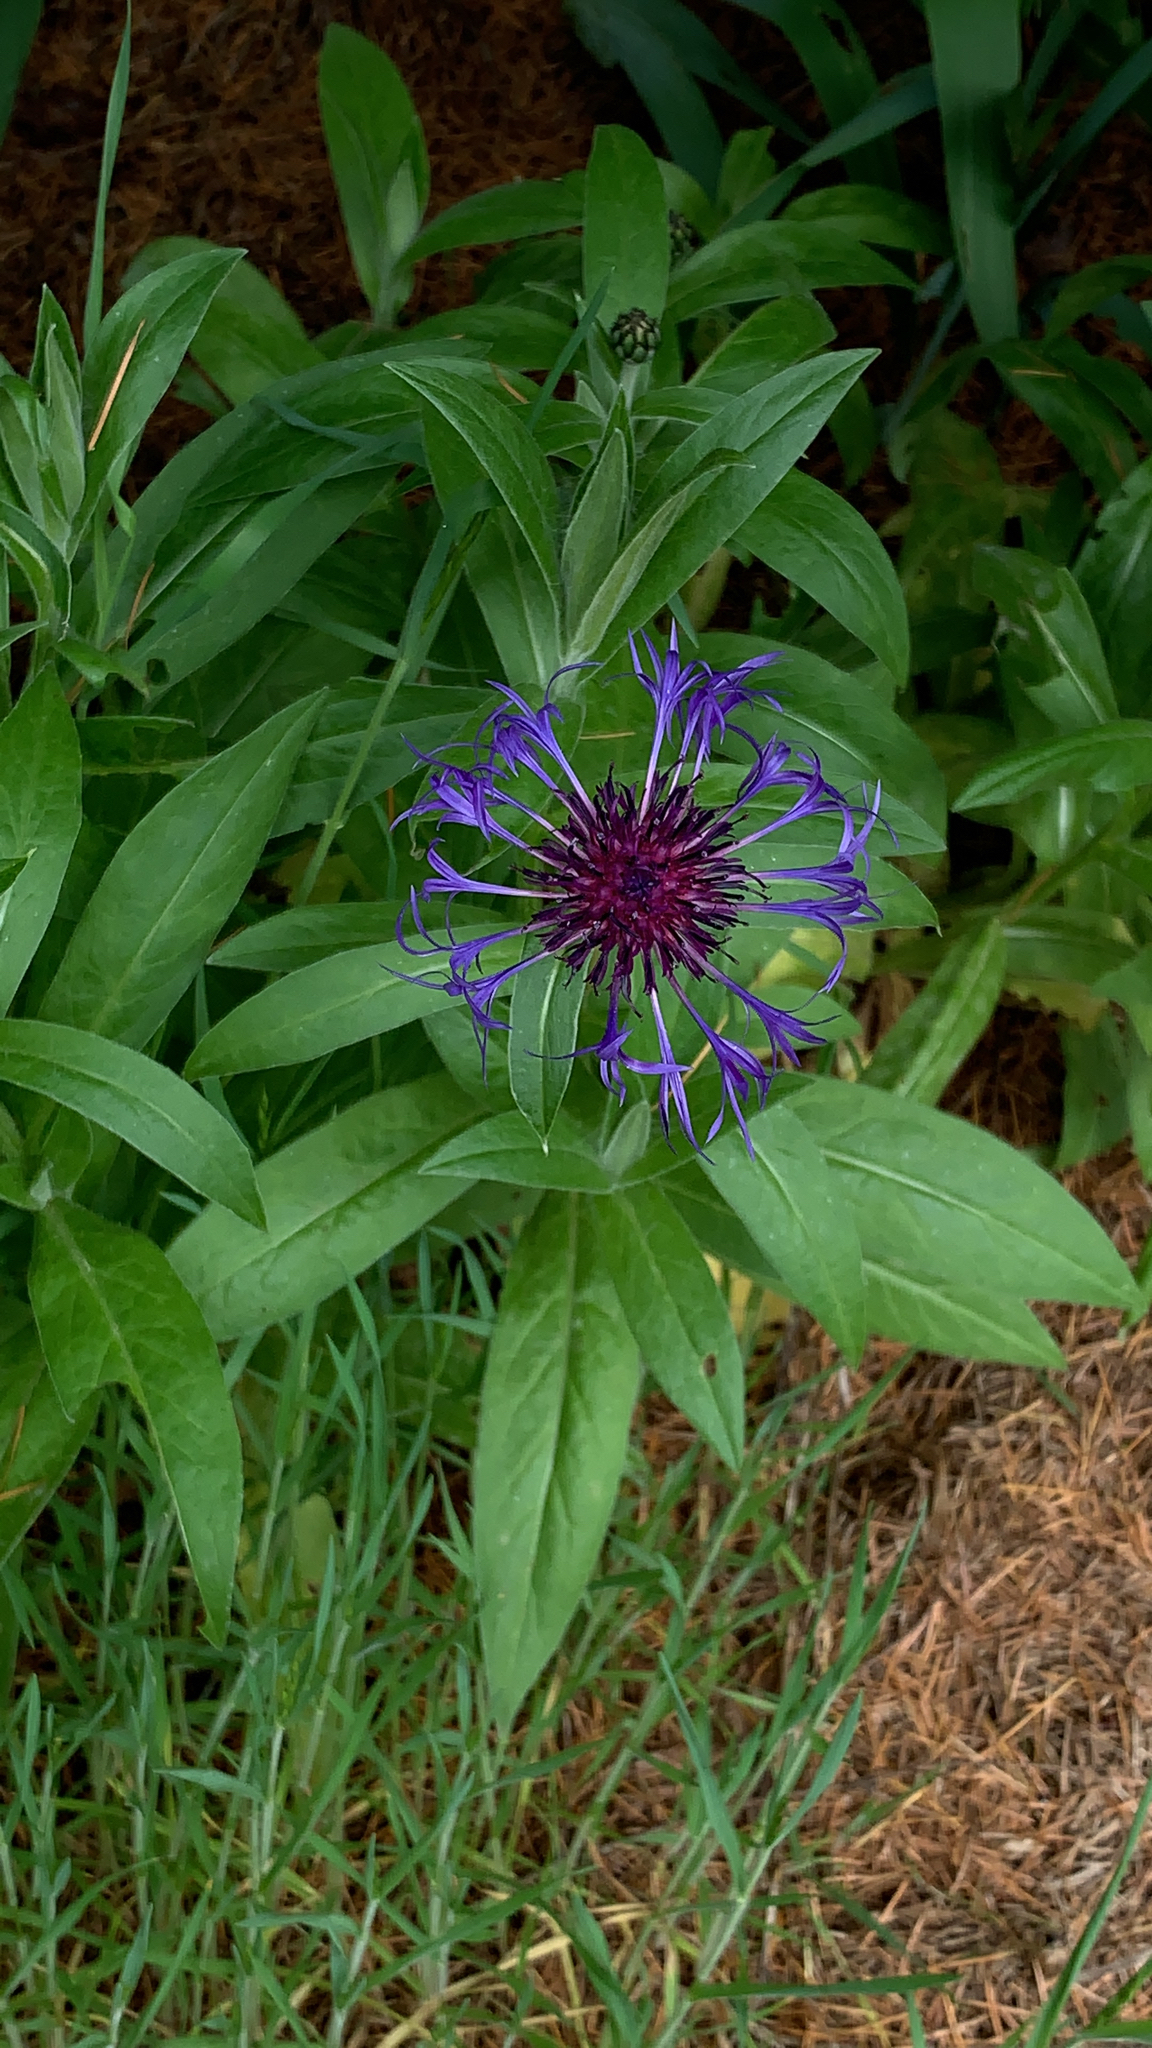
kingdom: Plantae
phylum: Tracheophyta
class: Magnoliopsida
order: Asterales
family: Asteraceae
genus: Centaurea
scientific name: Centaurea montana
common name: Perennial cornflower
